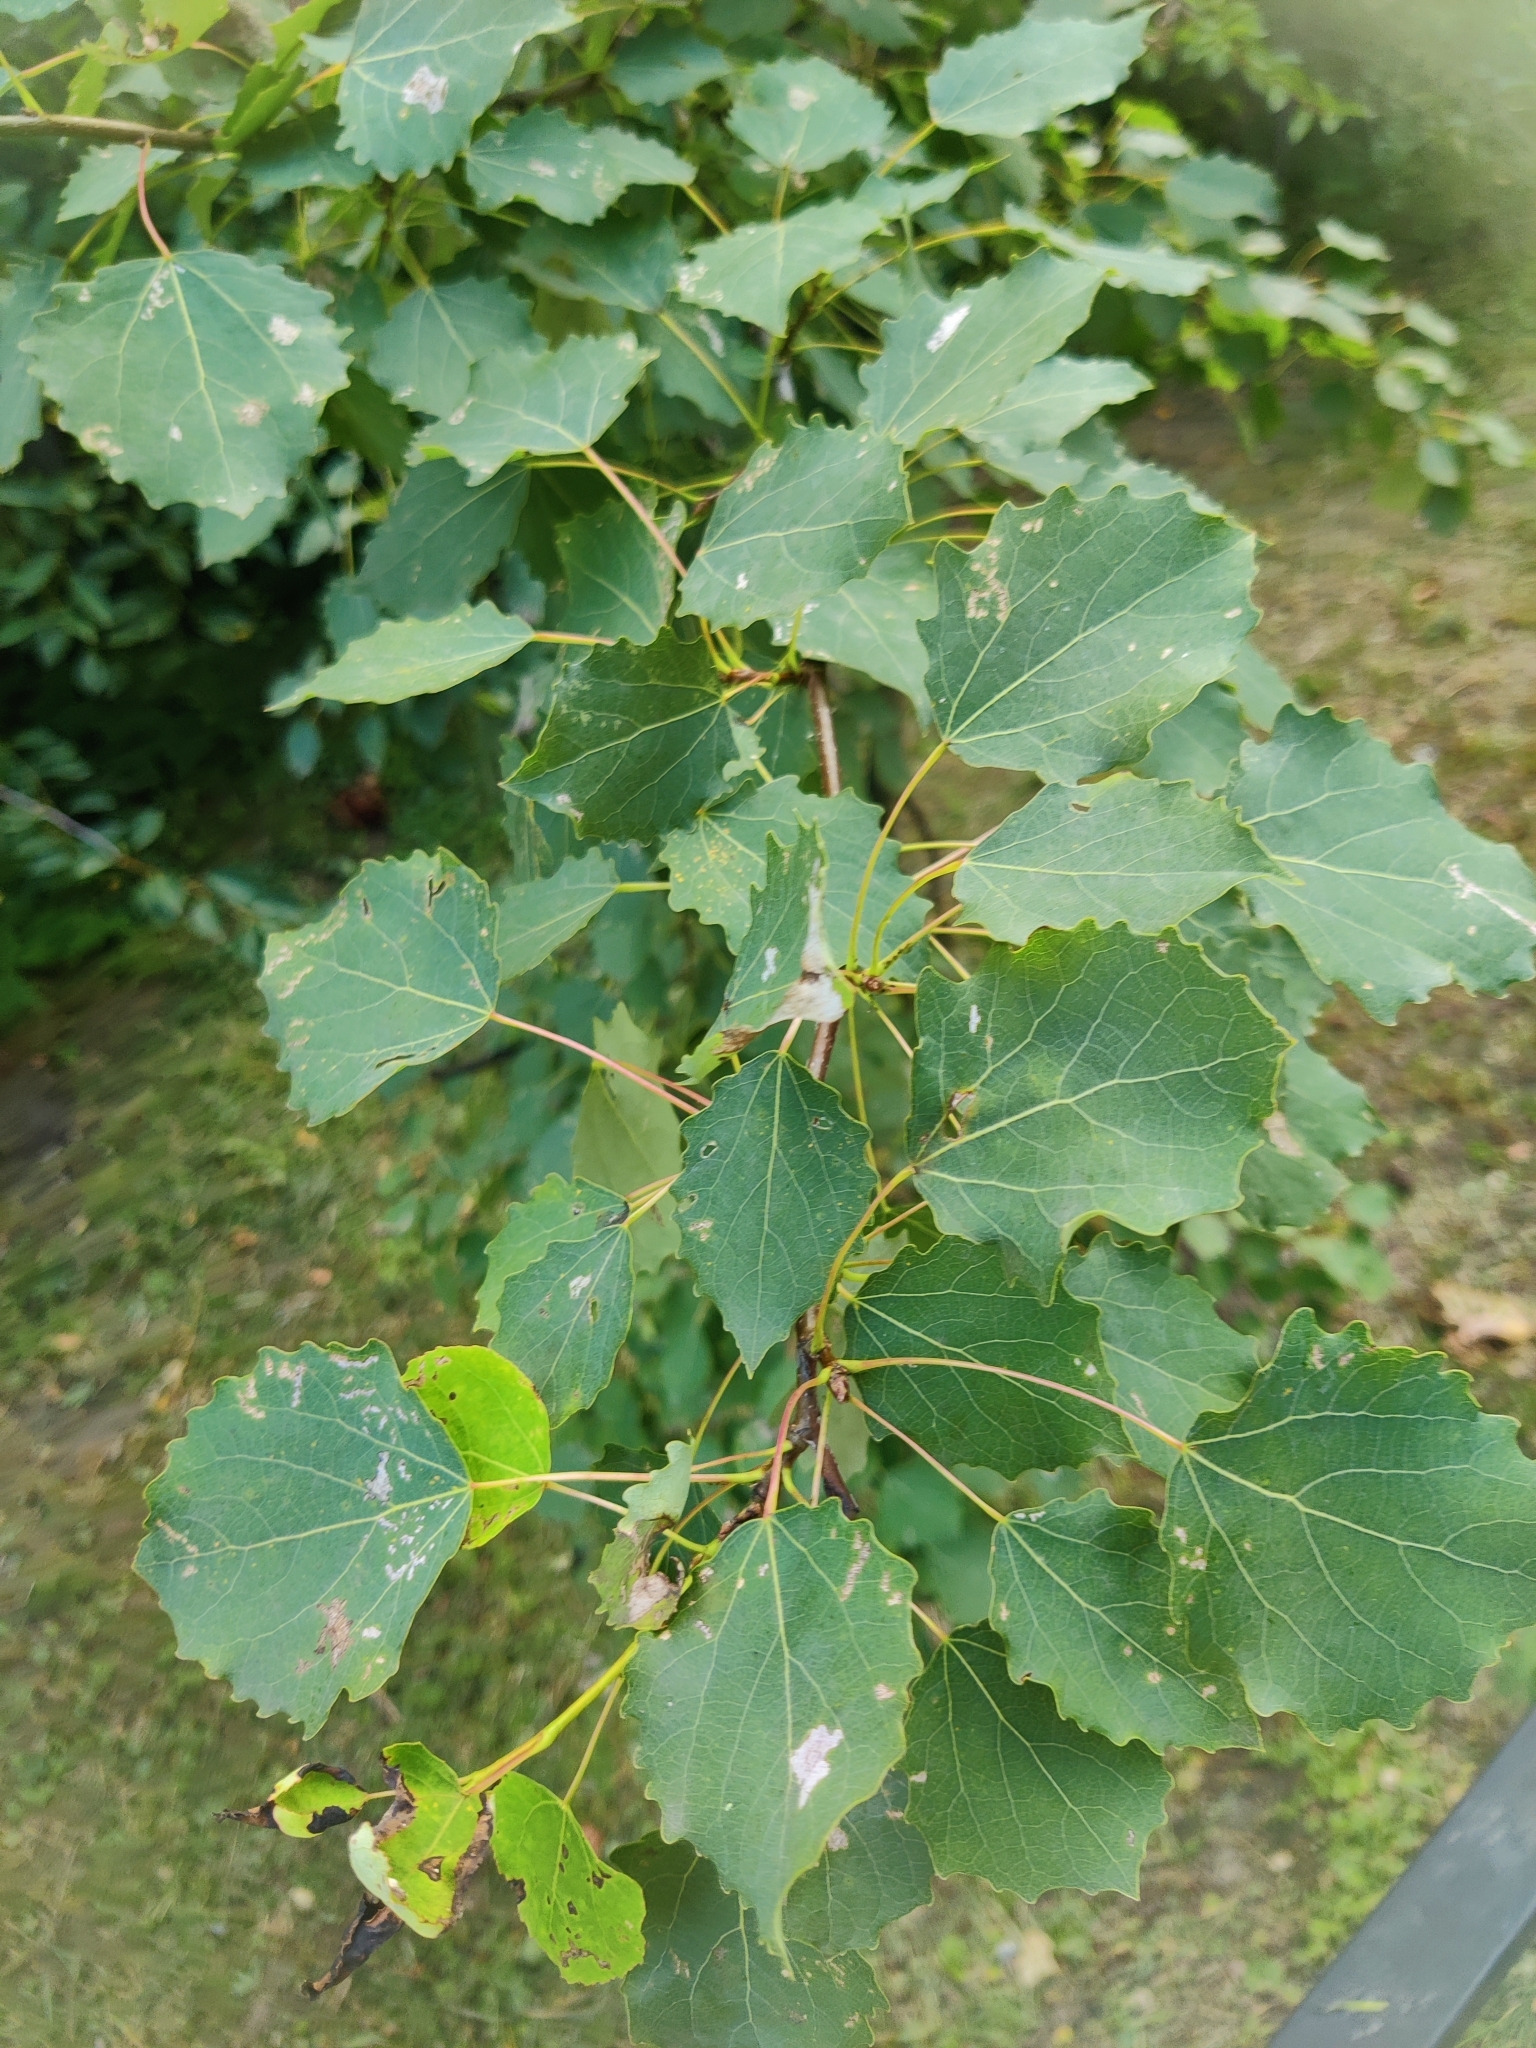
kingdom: Plantae
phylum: Tracheophyta
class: Magnoliopsida
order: Malpighiales
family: Salicaceae
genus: Populus
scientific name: Populus tremula
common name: European aspen
